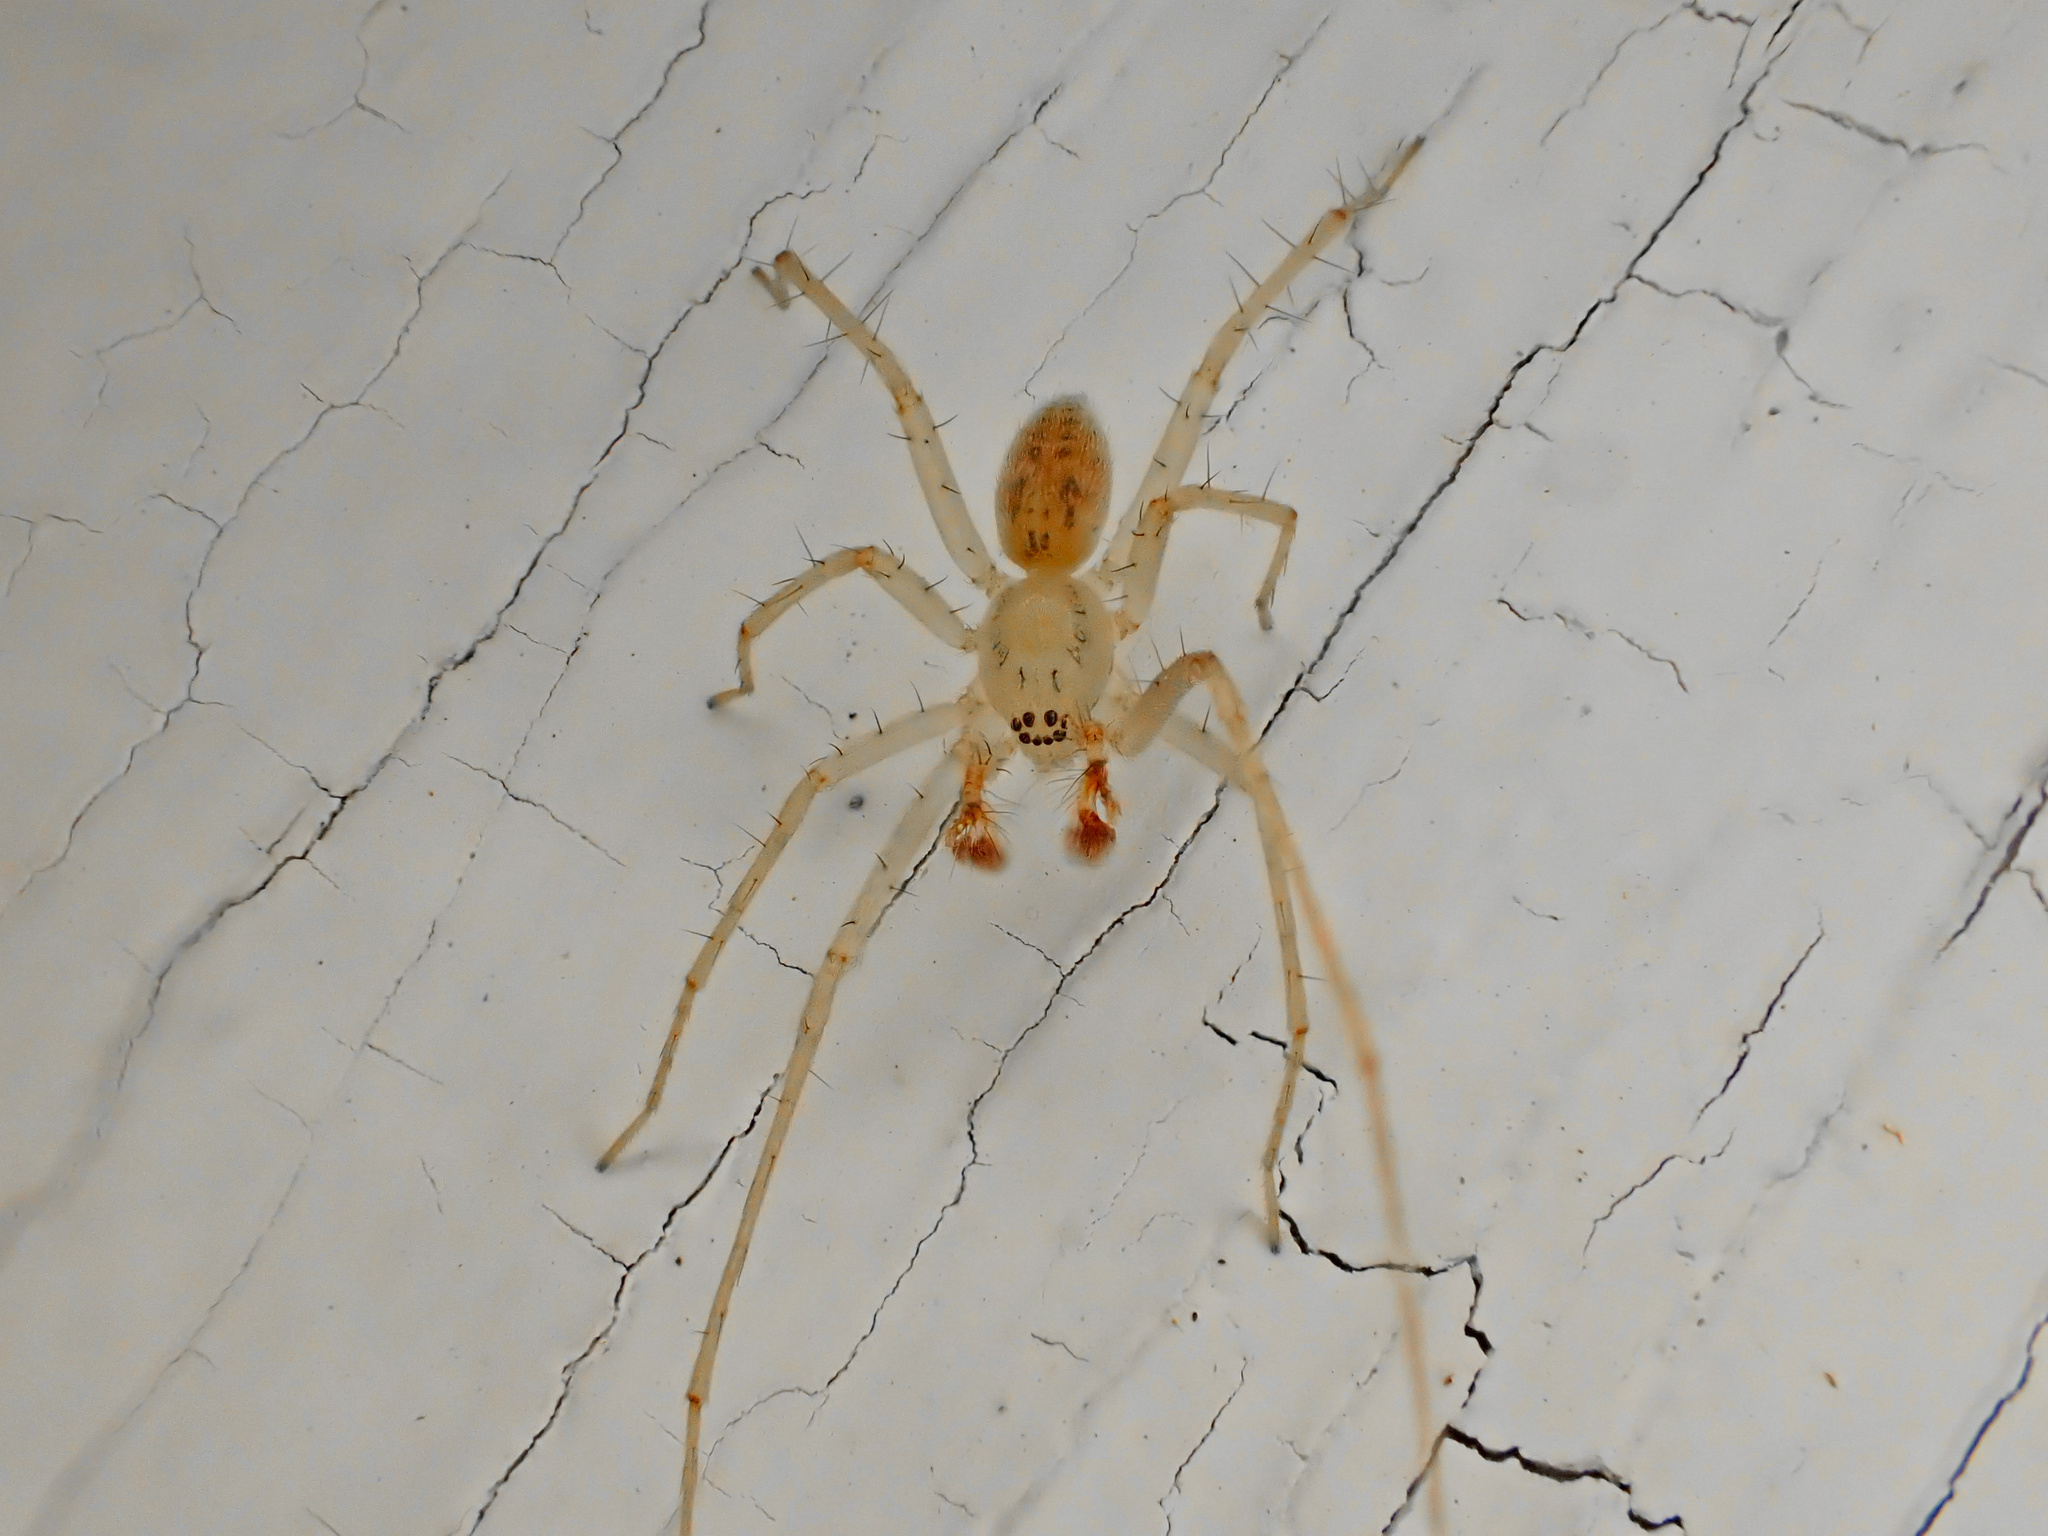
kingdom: Animalia
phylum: Arthropoda
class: Arachnida
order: Araneae
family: Anyphaenidae
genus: Wulfila
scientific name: Wulfila saltabundus
